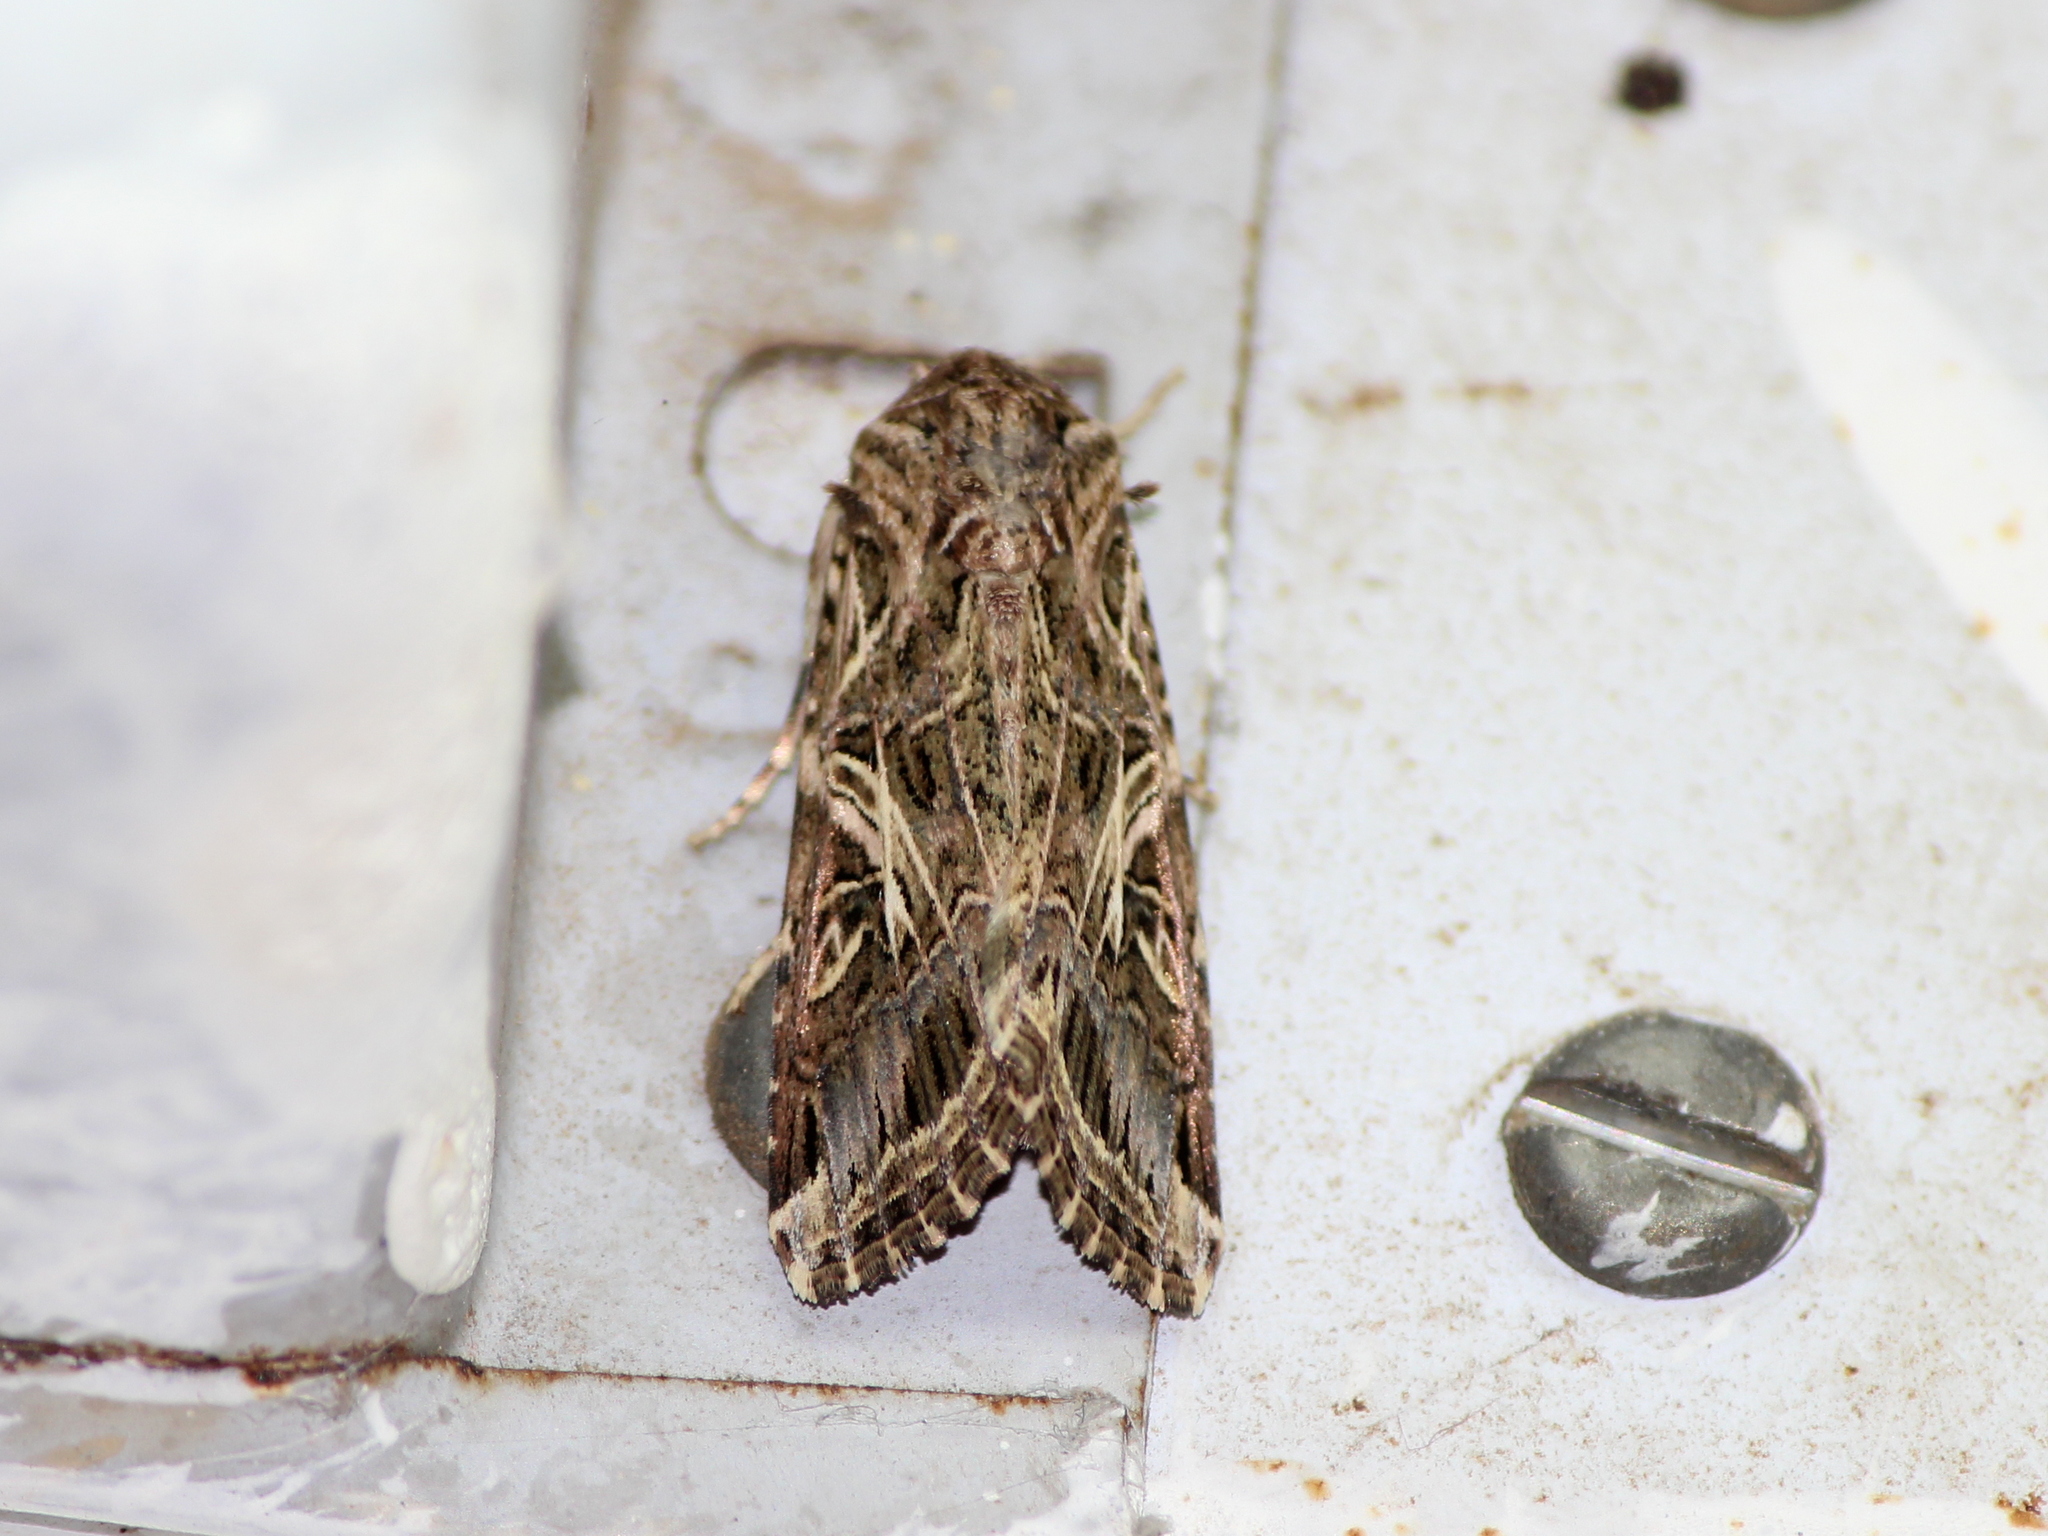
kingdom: Animalia
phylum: Arthropoda
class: Insecta
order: Lepidoptera
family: Noctuidae
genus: Spodoptera
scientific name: Spodoptera litura
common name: Asian cotton leafworm
